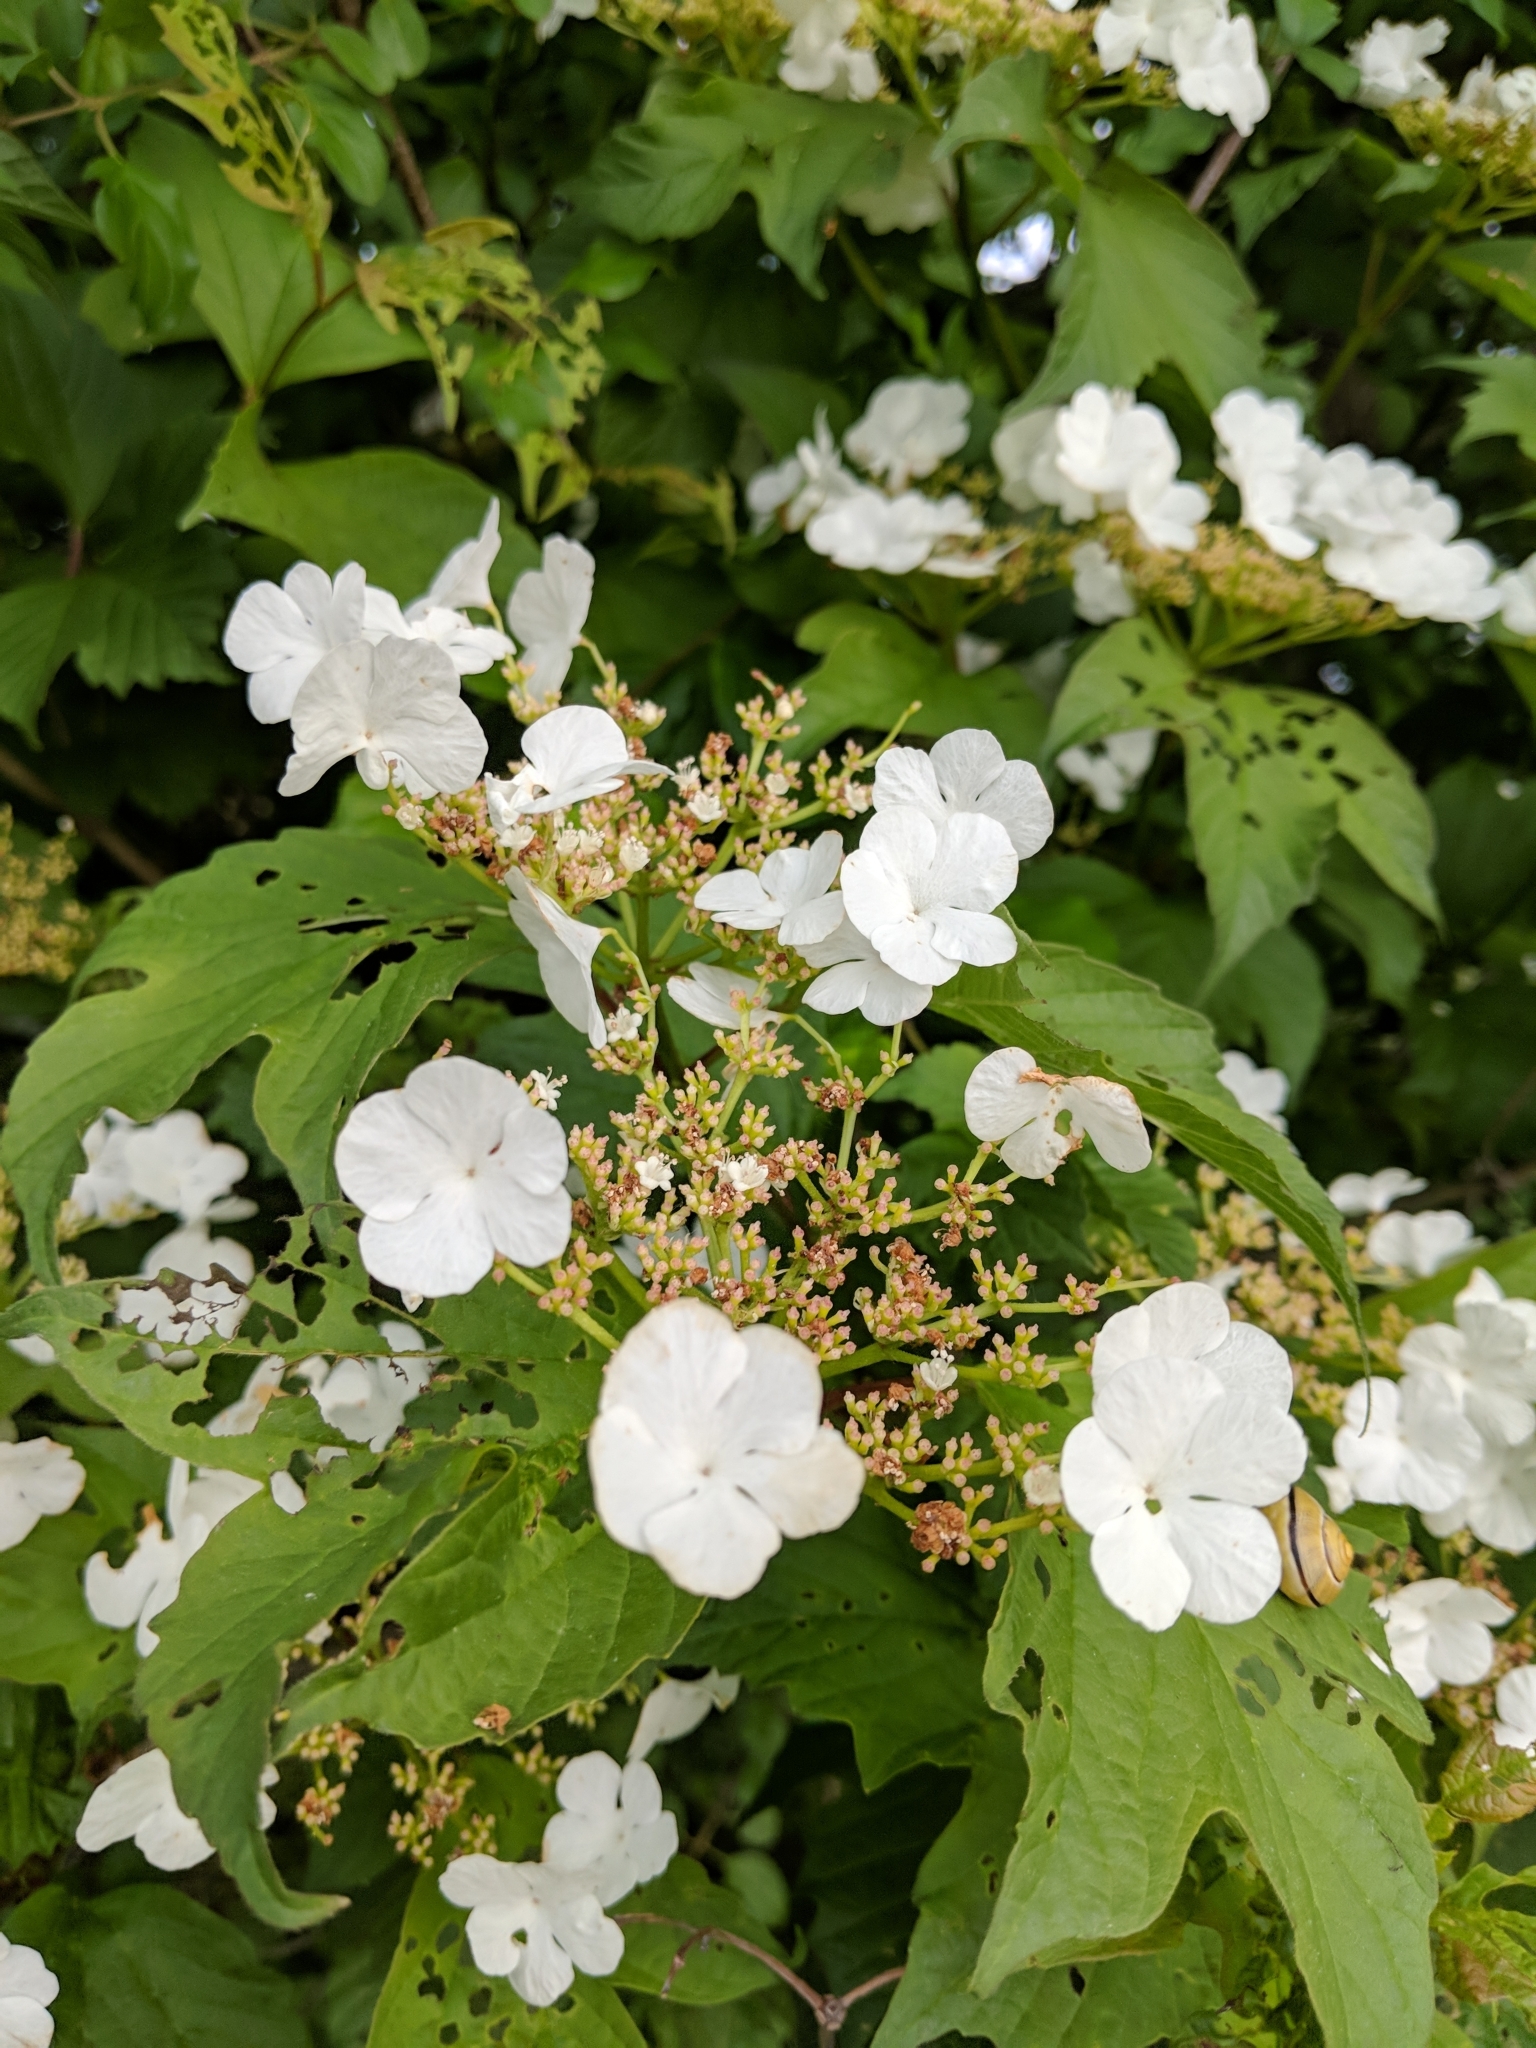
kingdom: Plantae
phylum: Tracheophyta
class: Magnoliopsida
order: Dipsacales
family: Viburnaceae
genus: Viburnum
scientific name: Viburnum opulus
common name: Guelder-rose
